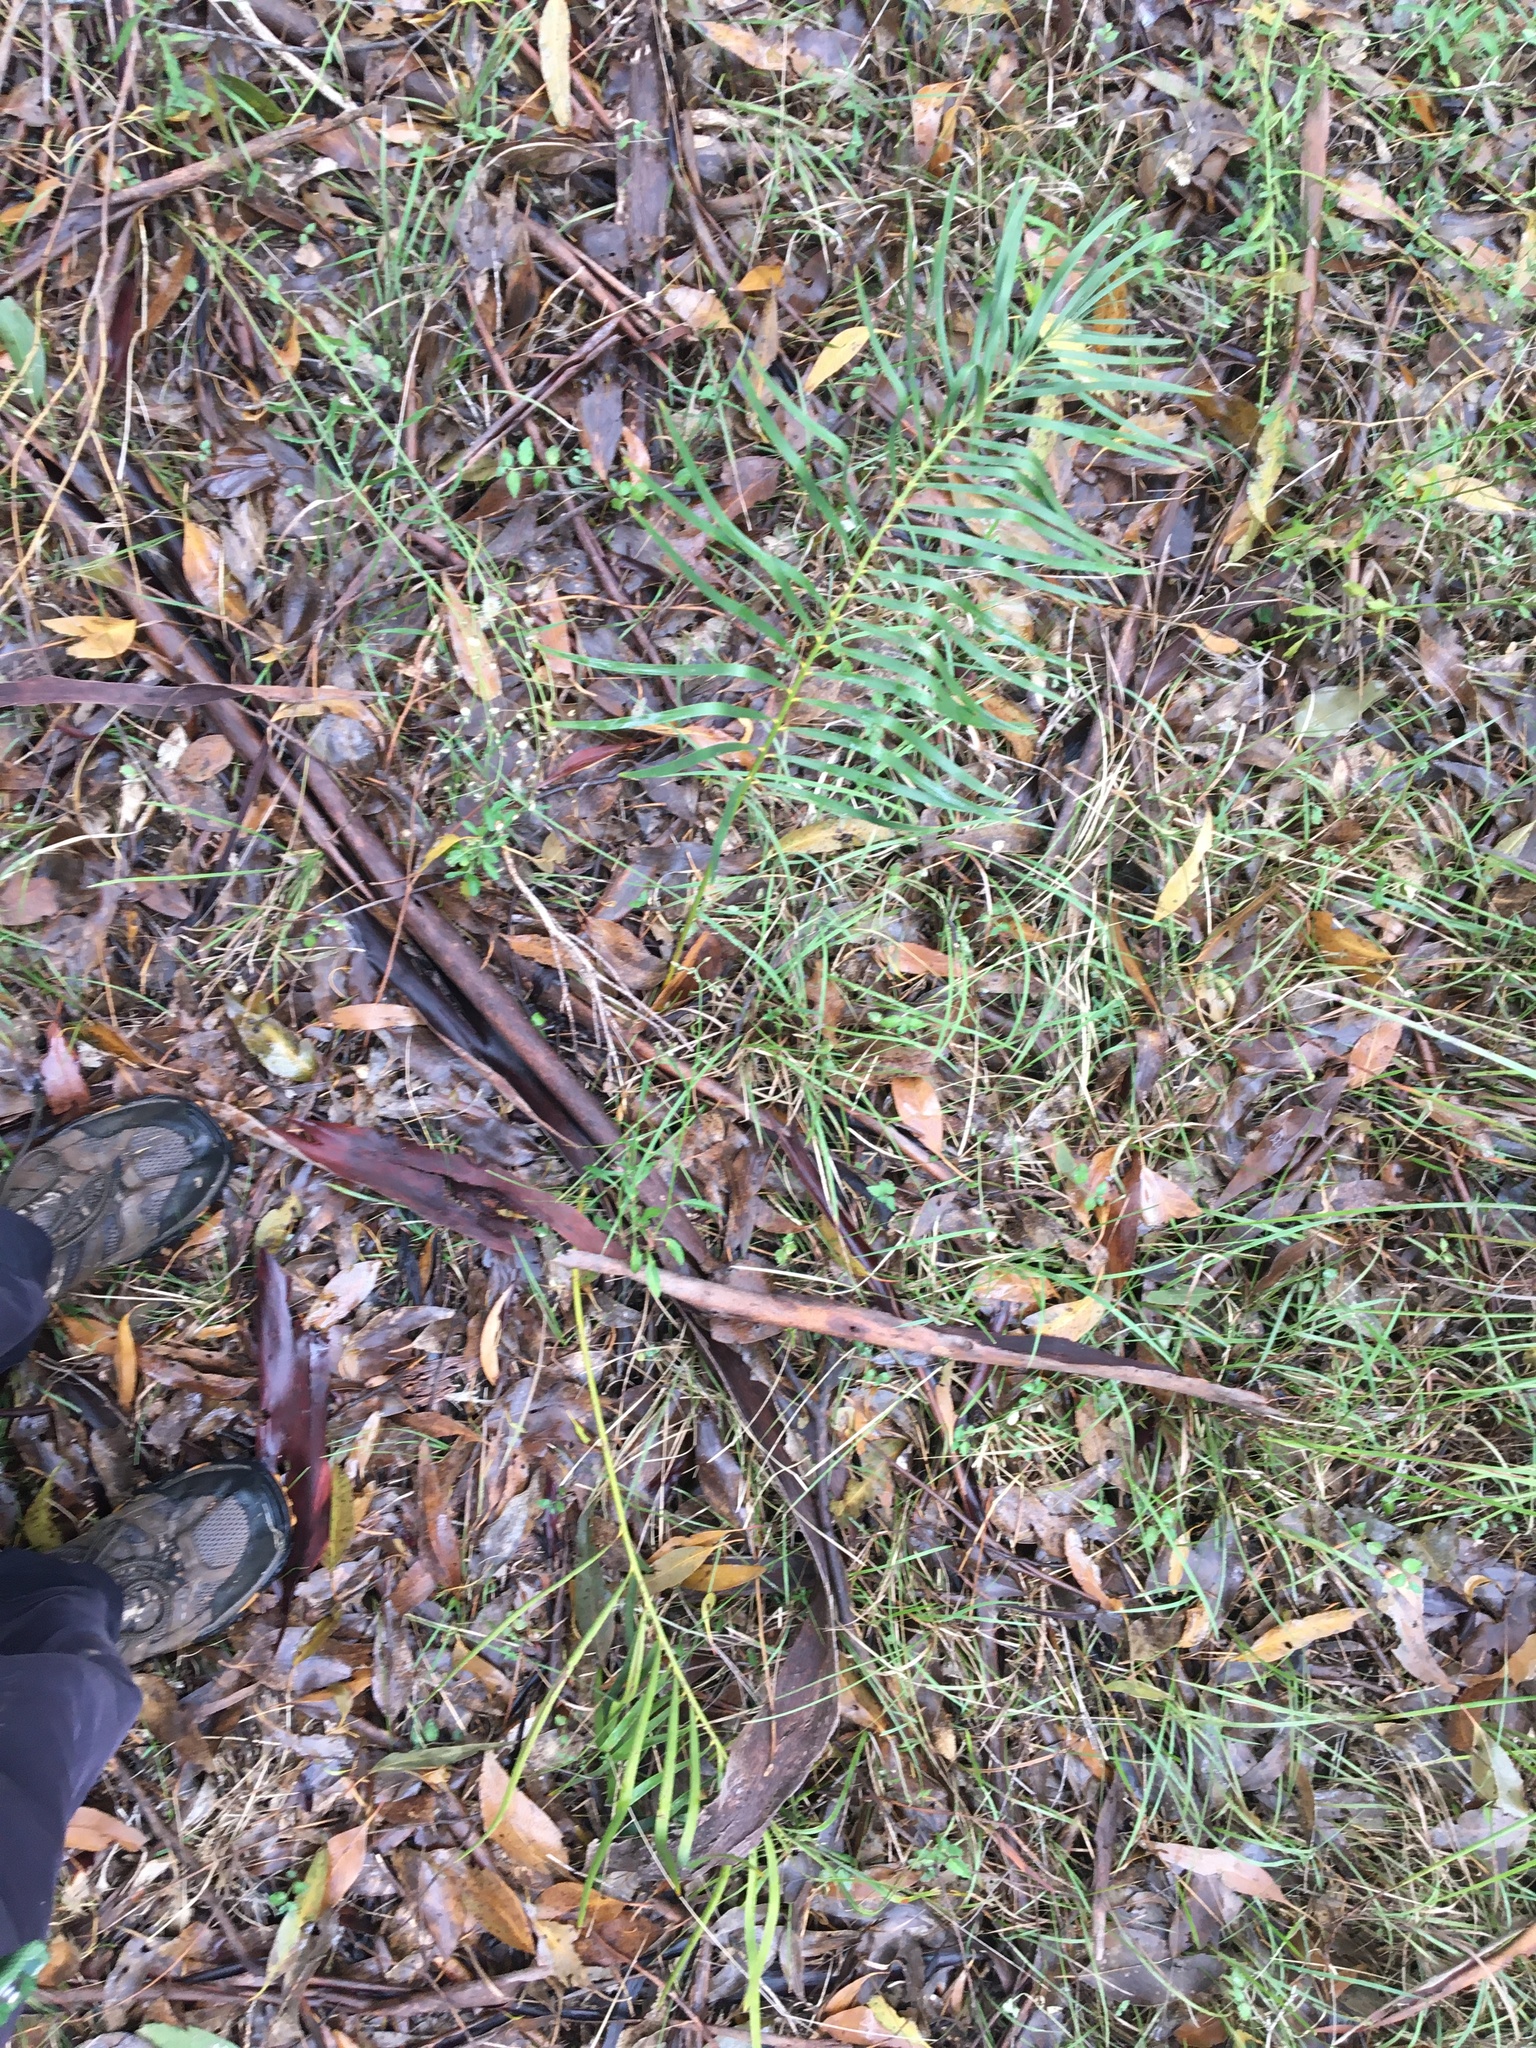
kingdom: Plantae
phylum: Tracheophyta
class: Cycadopsida
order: Cycadales
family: Zamiaceae
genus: Macrozamia
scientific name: Macrozamia spiralis
